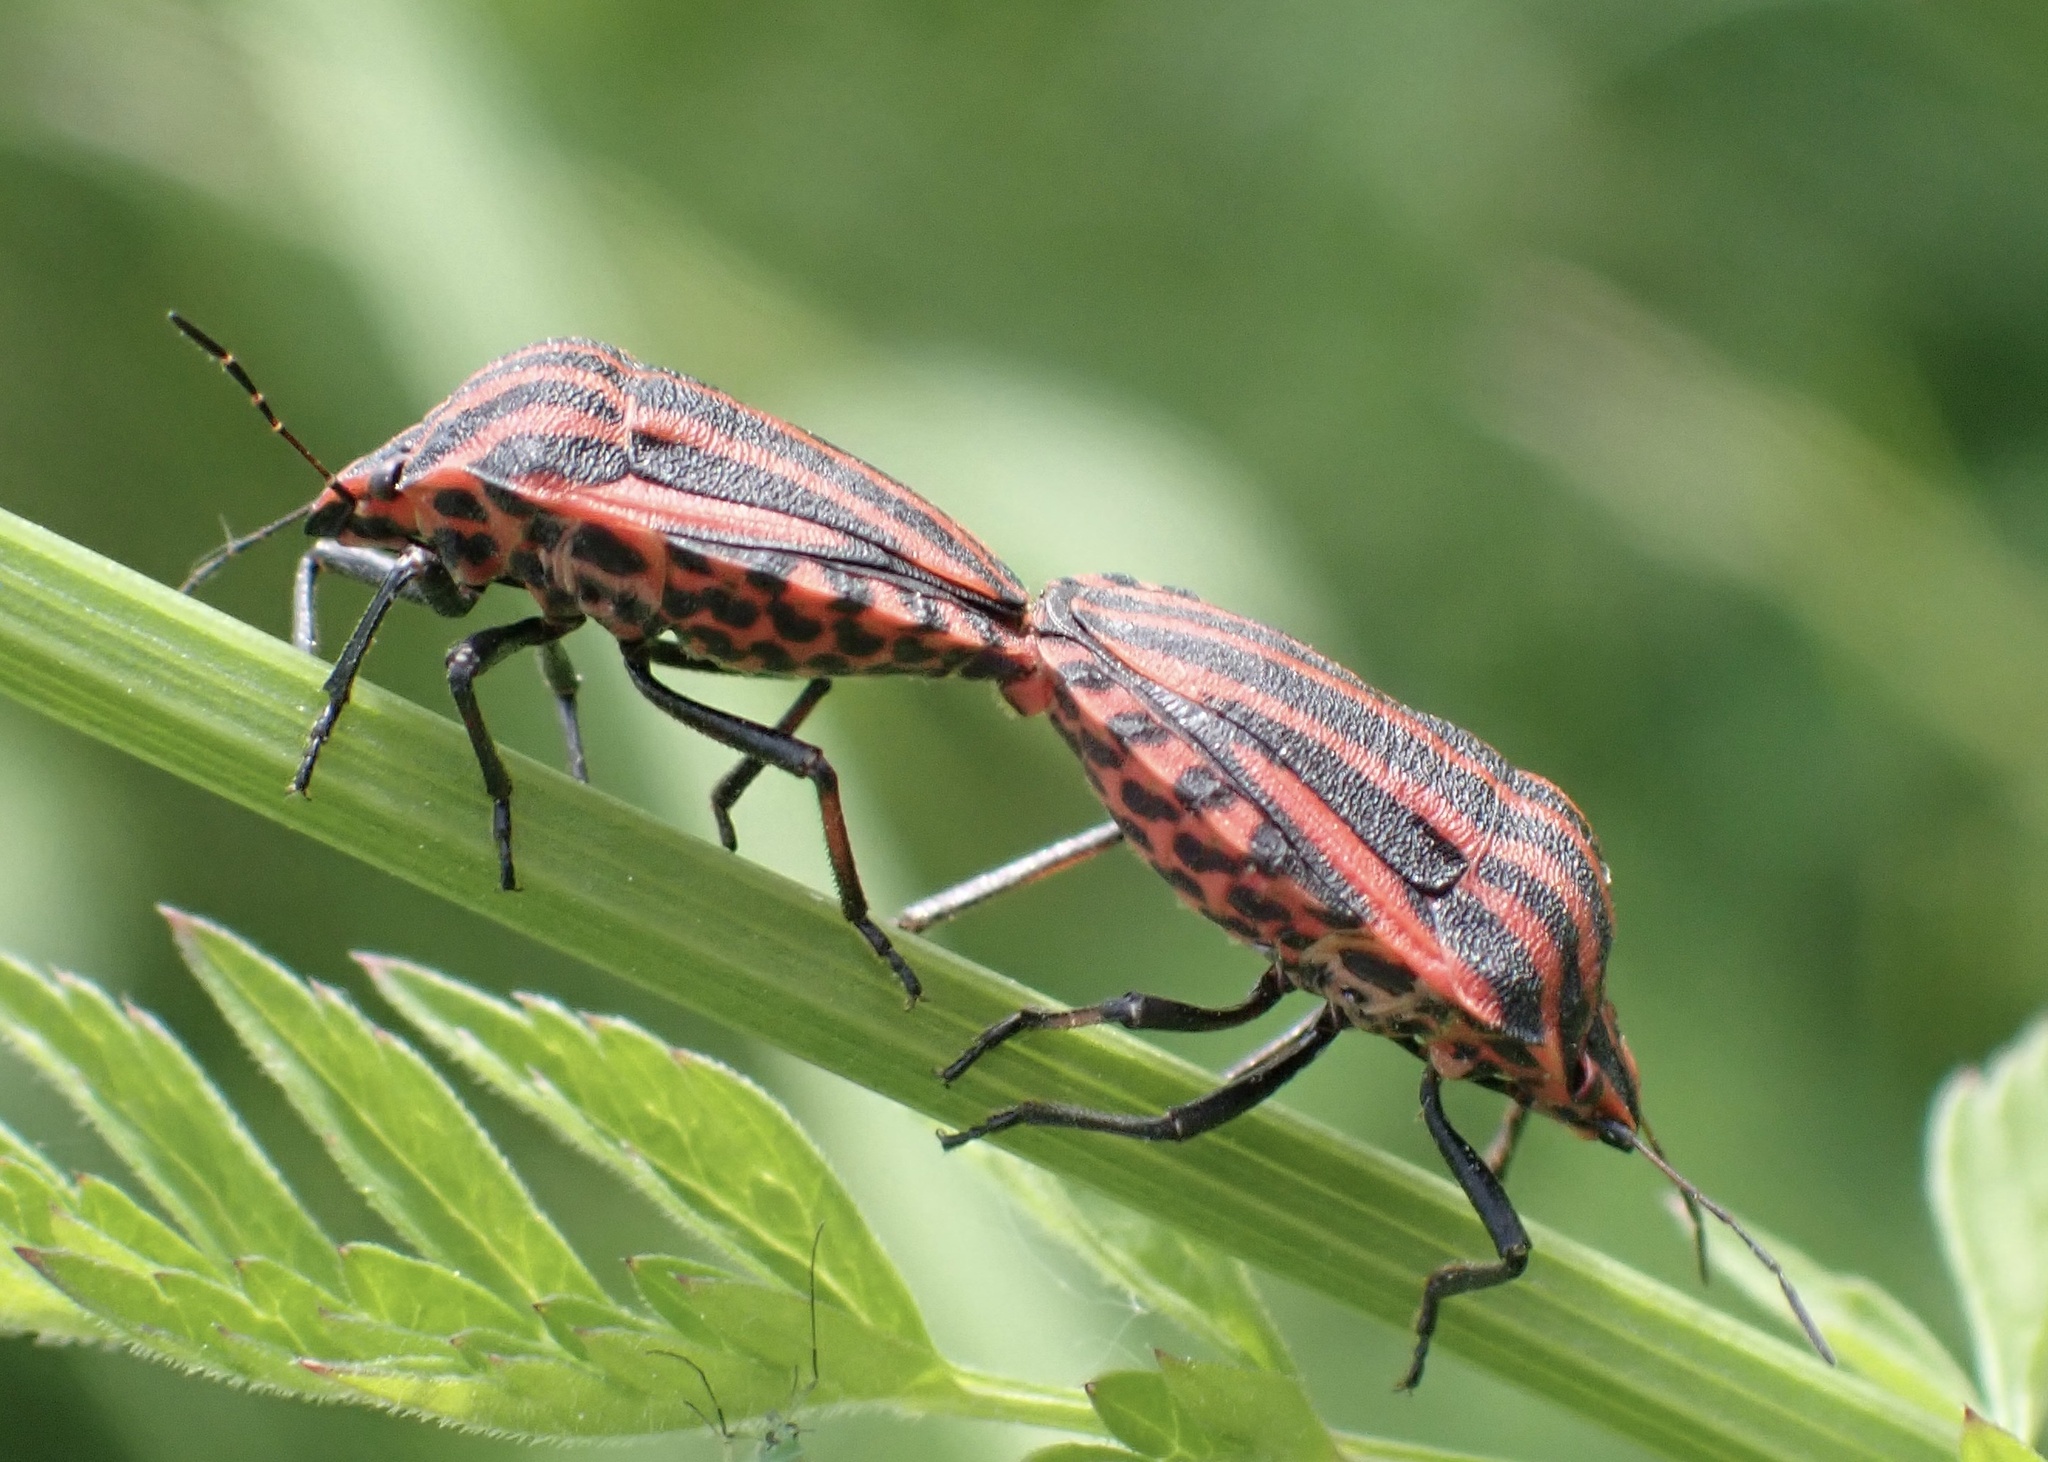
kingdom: Animalia
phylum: Arthropoda
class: Insecta
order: Hemiptera
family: Pentatomidae
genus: Graphosoma
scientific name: Graphosoma italicum
